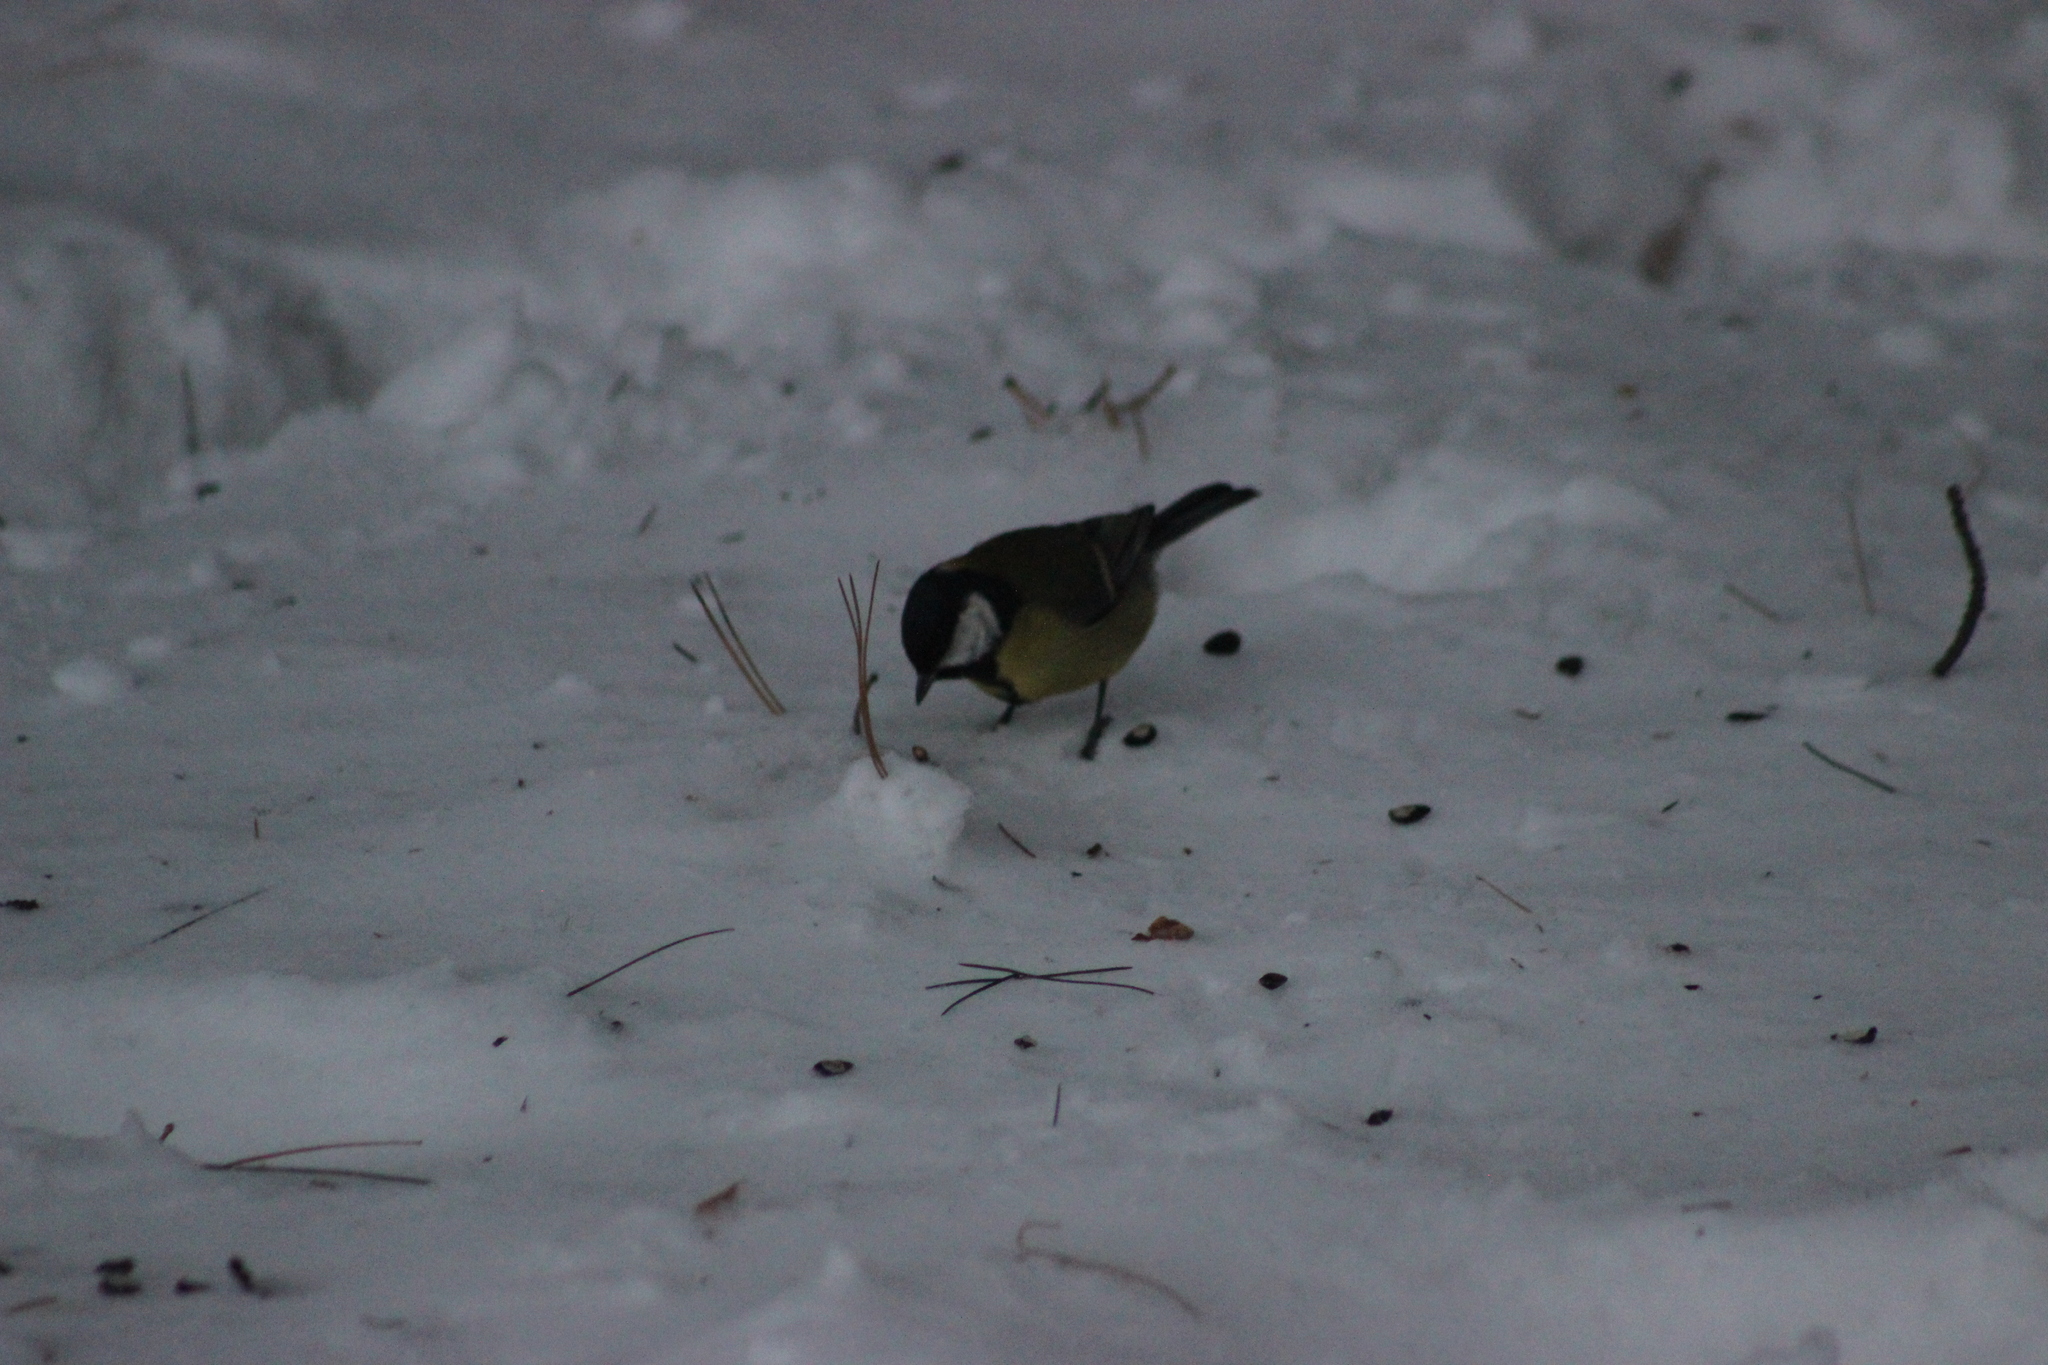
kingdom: Animalia
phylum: Chordata
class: Aves
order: Passeriformes
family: Paridae
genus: Parus
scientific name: Parus major
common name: Great tit
